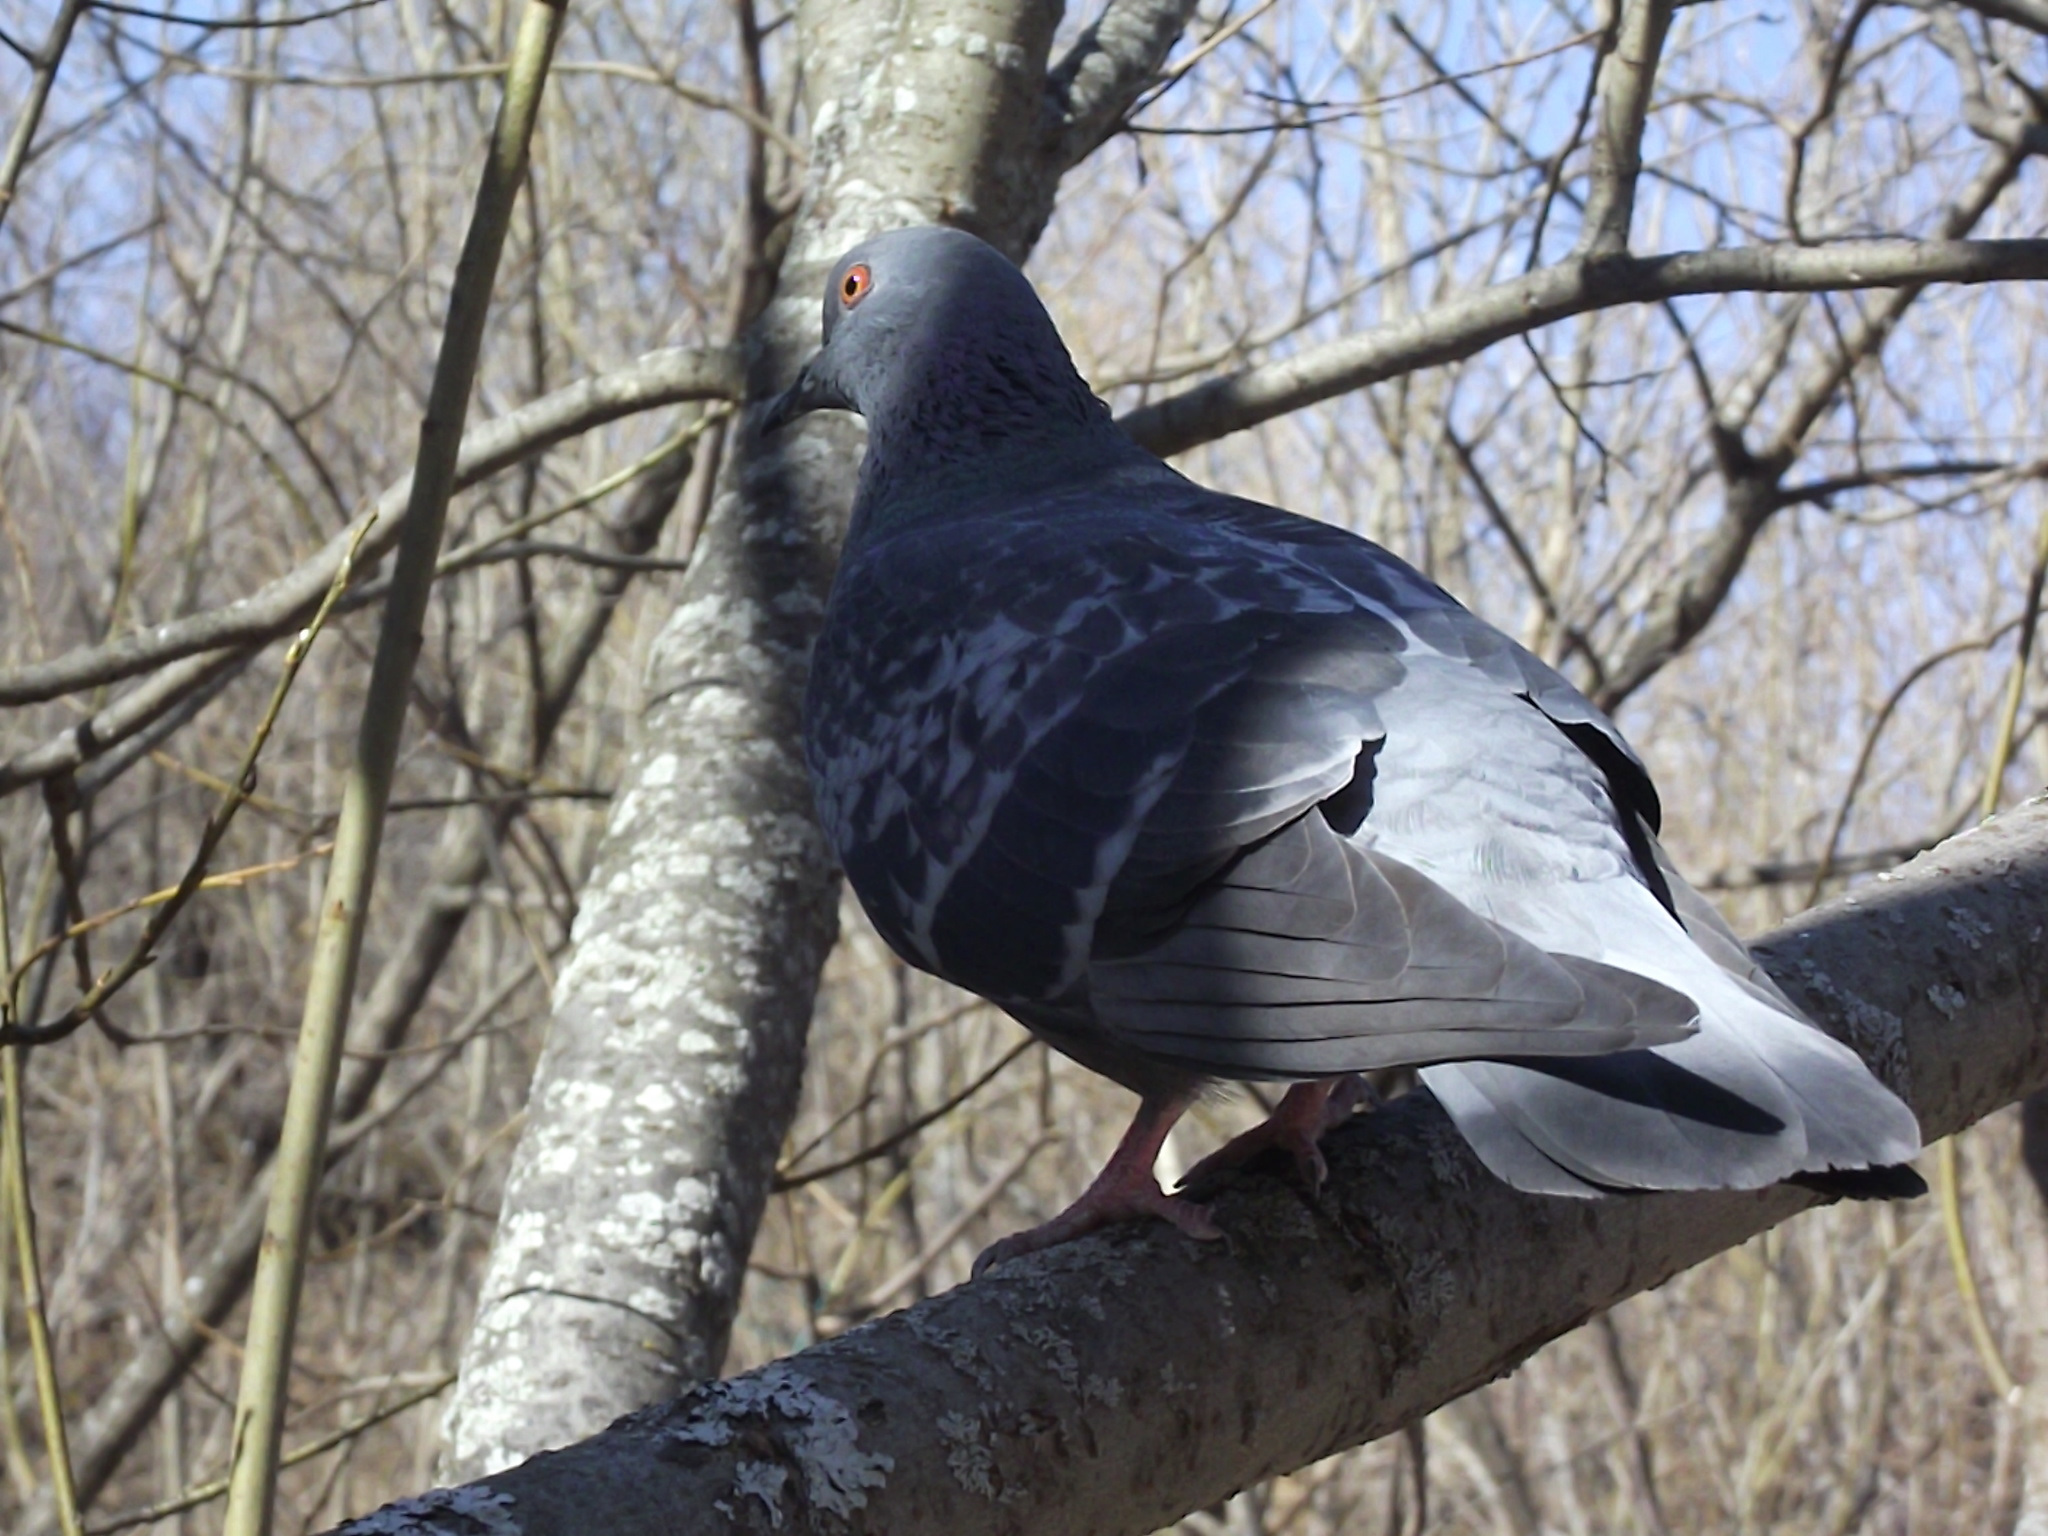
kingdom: Animalia
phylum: Chordata
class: Aves
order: Columbiformes
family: Columbidae
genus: Columba
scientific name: Columba livia
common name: Rock pigeon
